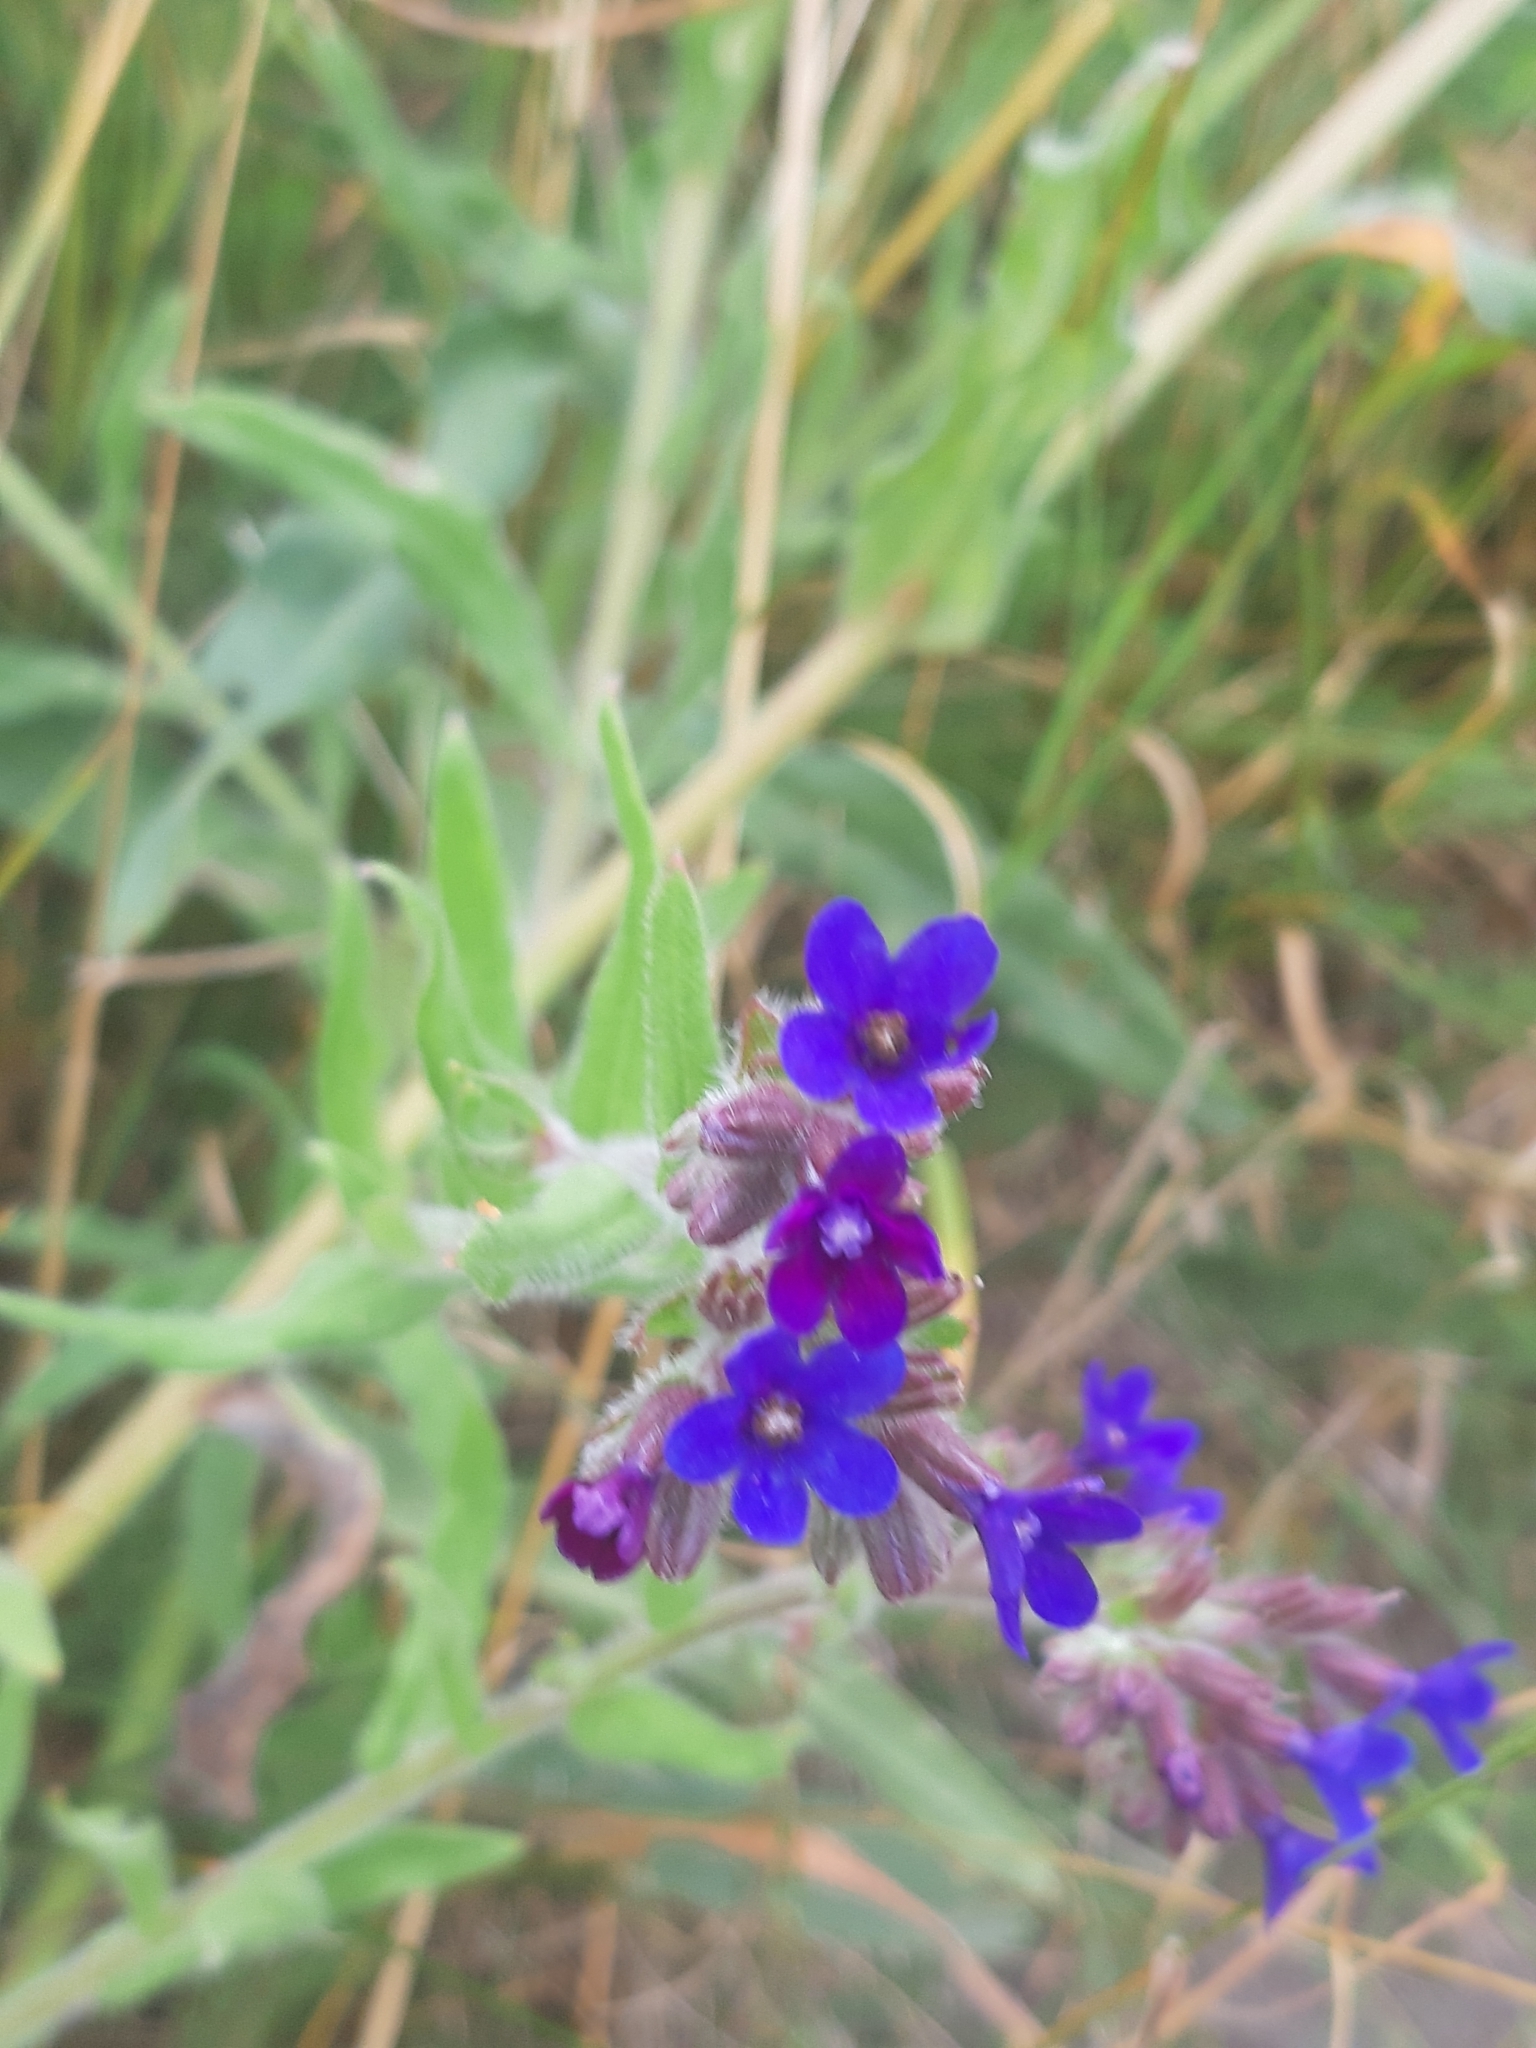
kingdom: Plantae
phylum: Tracheophyta
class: Magnoliopsida
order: Boraginales
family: Boraginaceae
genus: Anchusa
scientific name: Anchusa officinalis
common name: Alkanet
